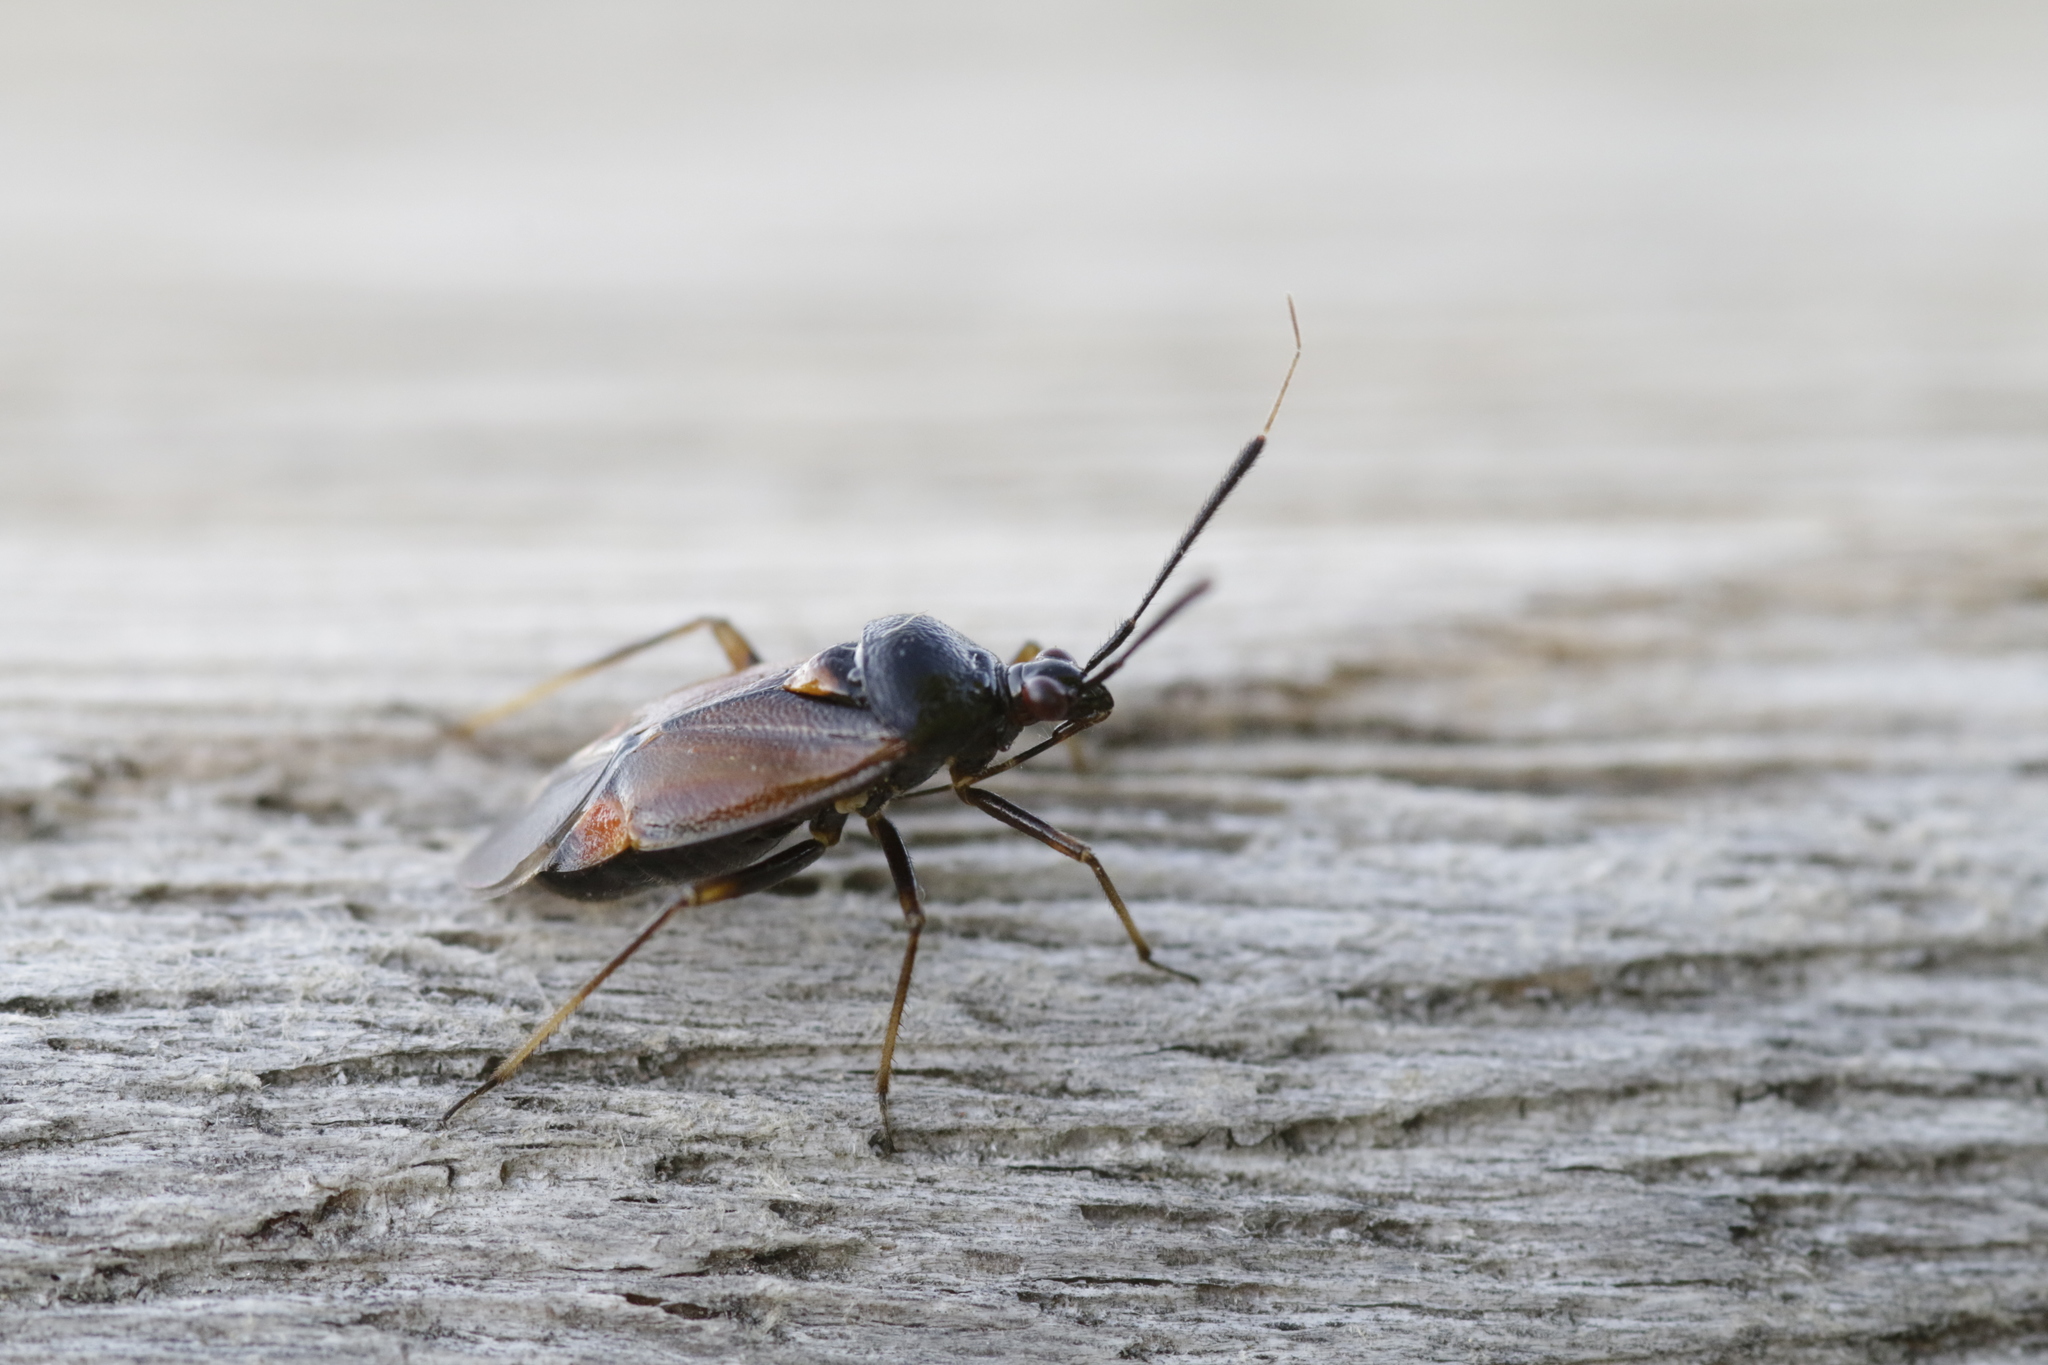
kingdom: Animalia
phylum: Arthropoda
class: Insecta
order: Hemiptera
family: Miridae
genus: Deraeocoris
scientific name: Deraeocoris ruber
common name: Plant bug
